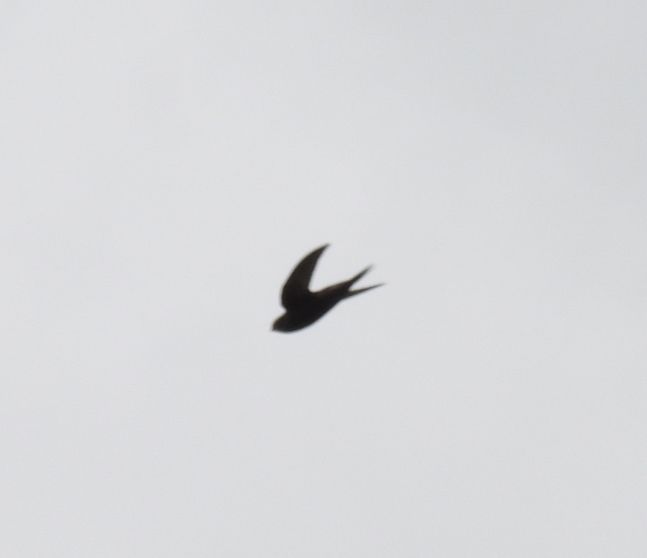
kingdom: Animalia
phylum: Chordata
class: Aves
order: Apodiformes
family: Apodidae
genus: Apus
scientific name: Apus apus
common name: Common swift
